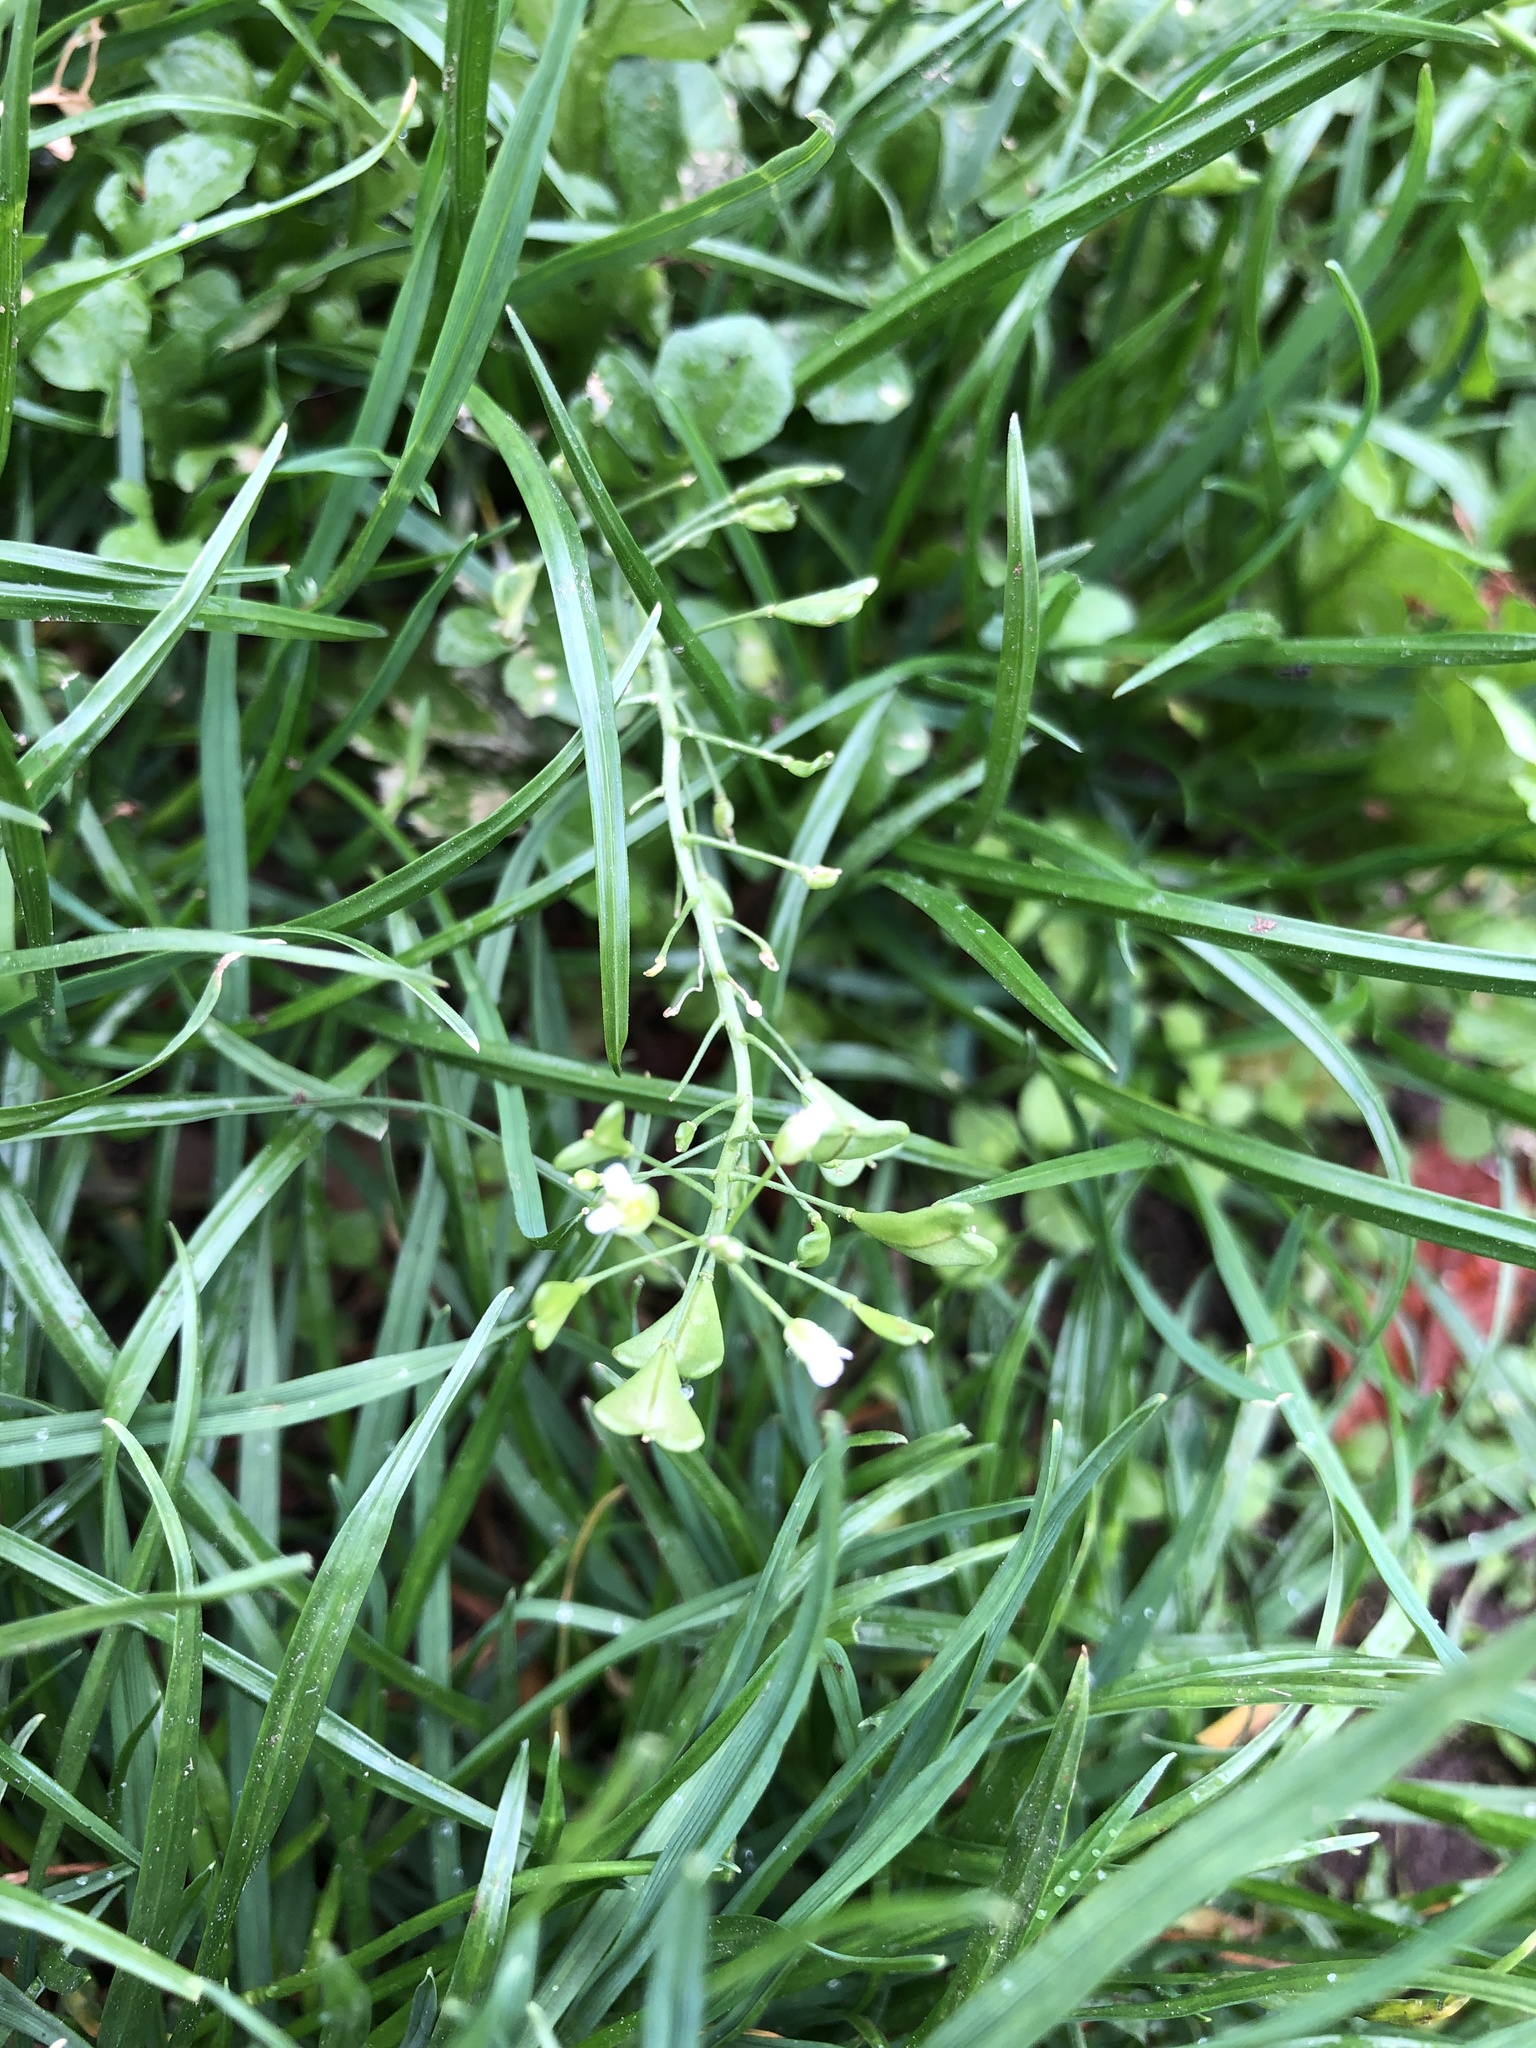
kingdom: Plantae
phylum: Tracheophyta
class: Magnoliopsida
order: Brassicales
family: Brassicaceae
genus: Capsella
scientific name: Capsella bursa-pastoris
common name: Shepherd's purse
